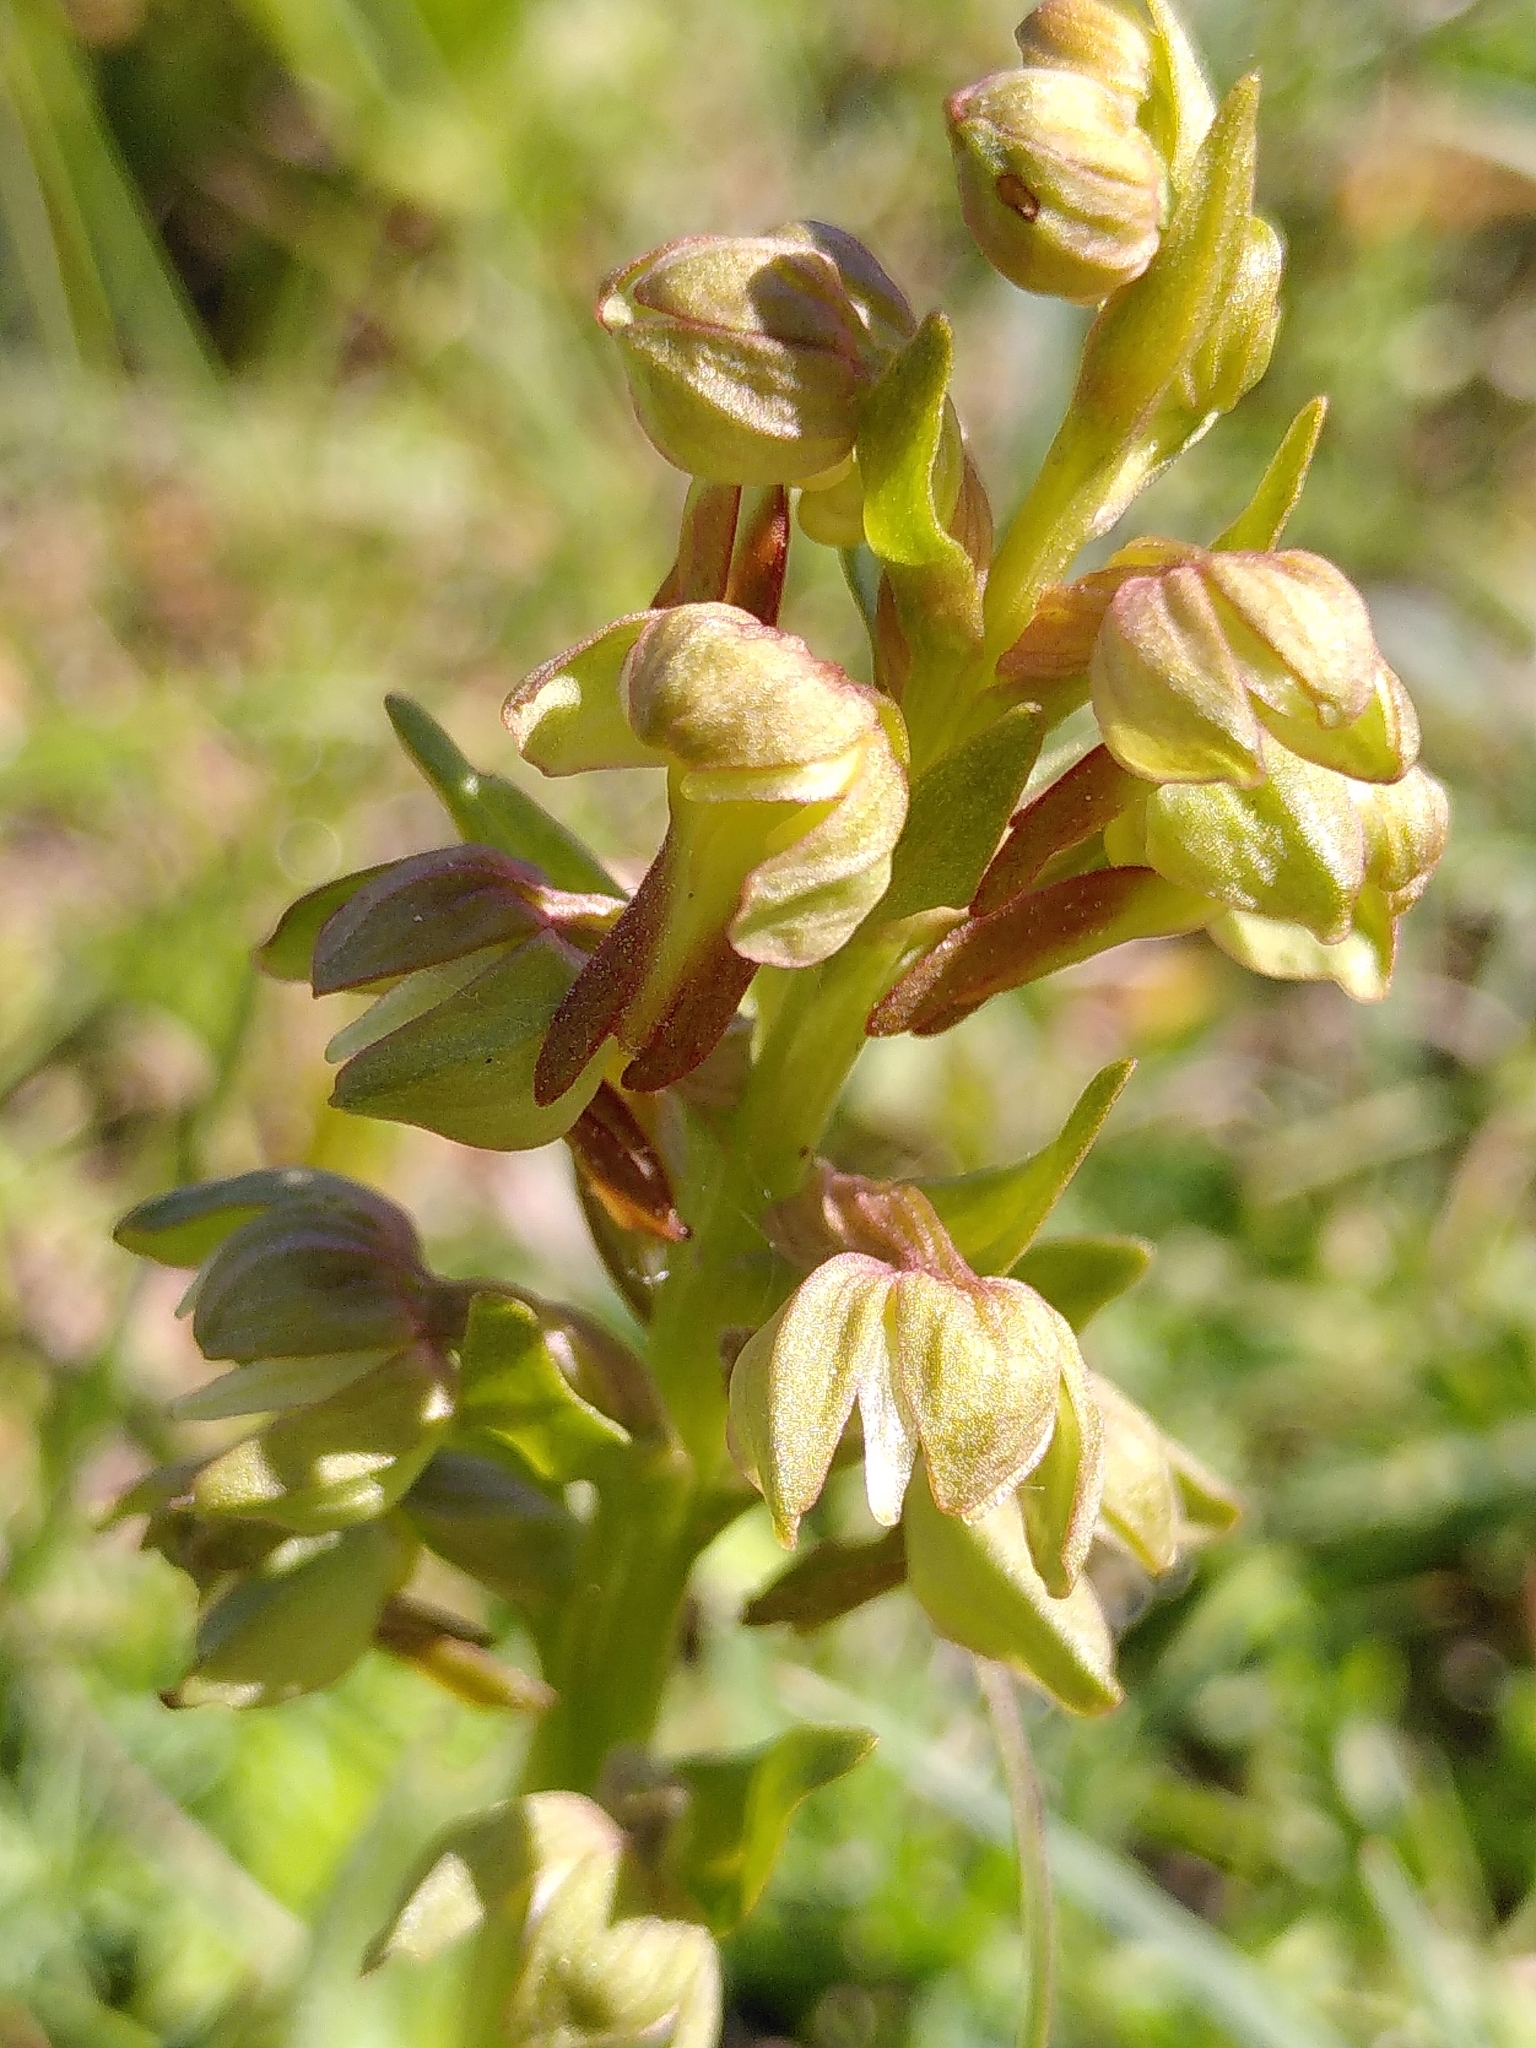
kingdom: Plantae
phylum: Tracheophyta
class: Liliopsida
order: Asparagales
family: Orchidaceae
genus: Dactylorhiza
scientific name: Dactylorhiza viridis
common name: Longbract frog orchid
